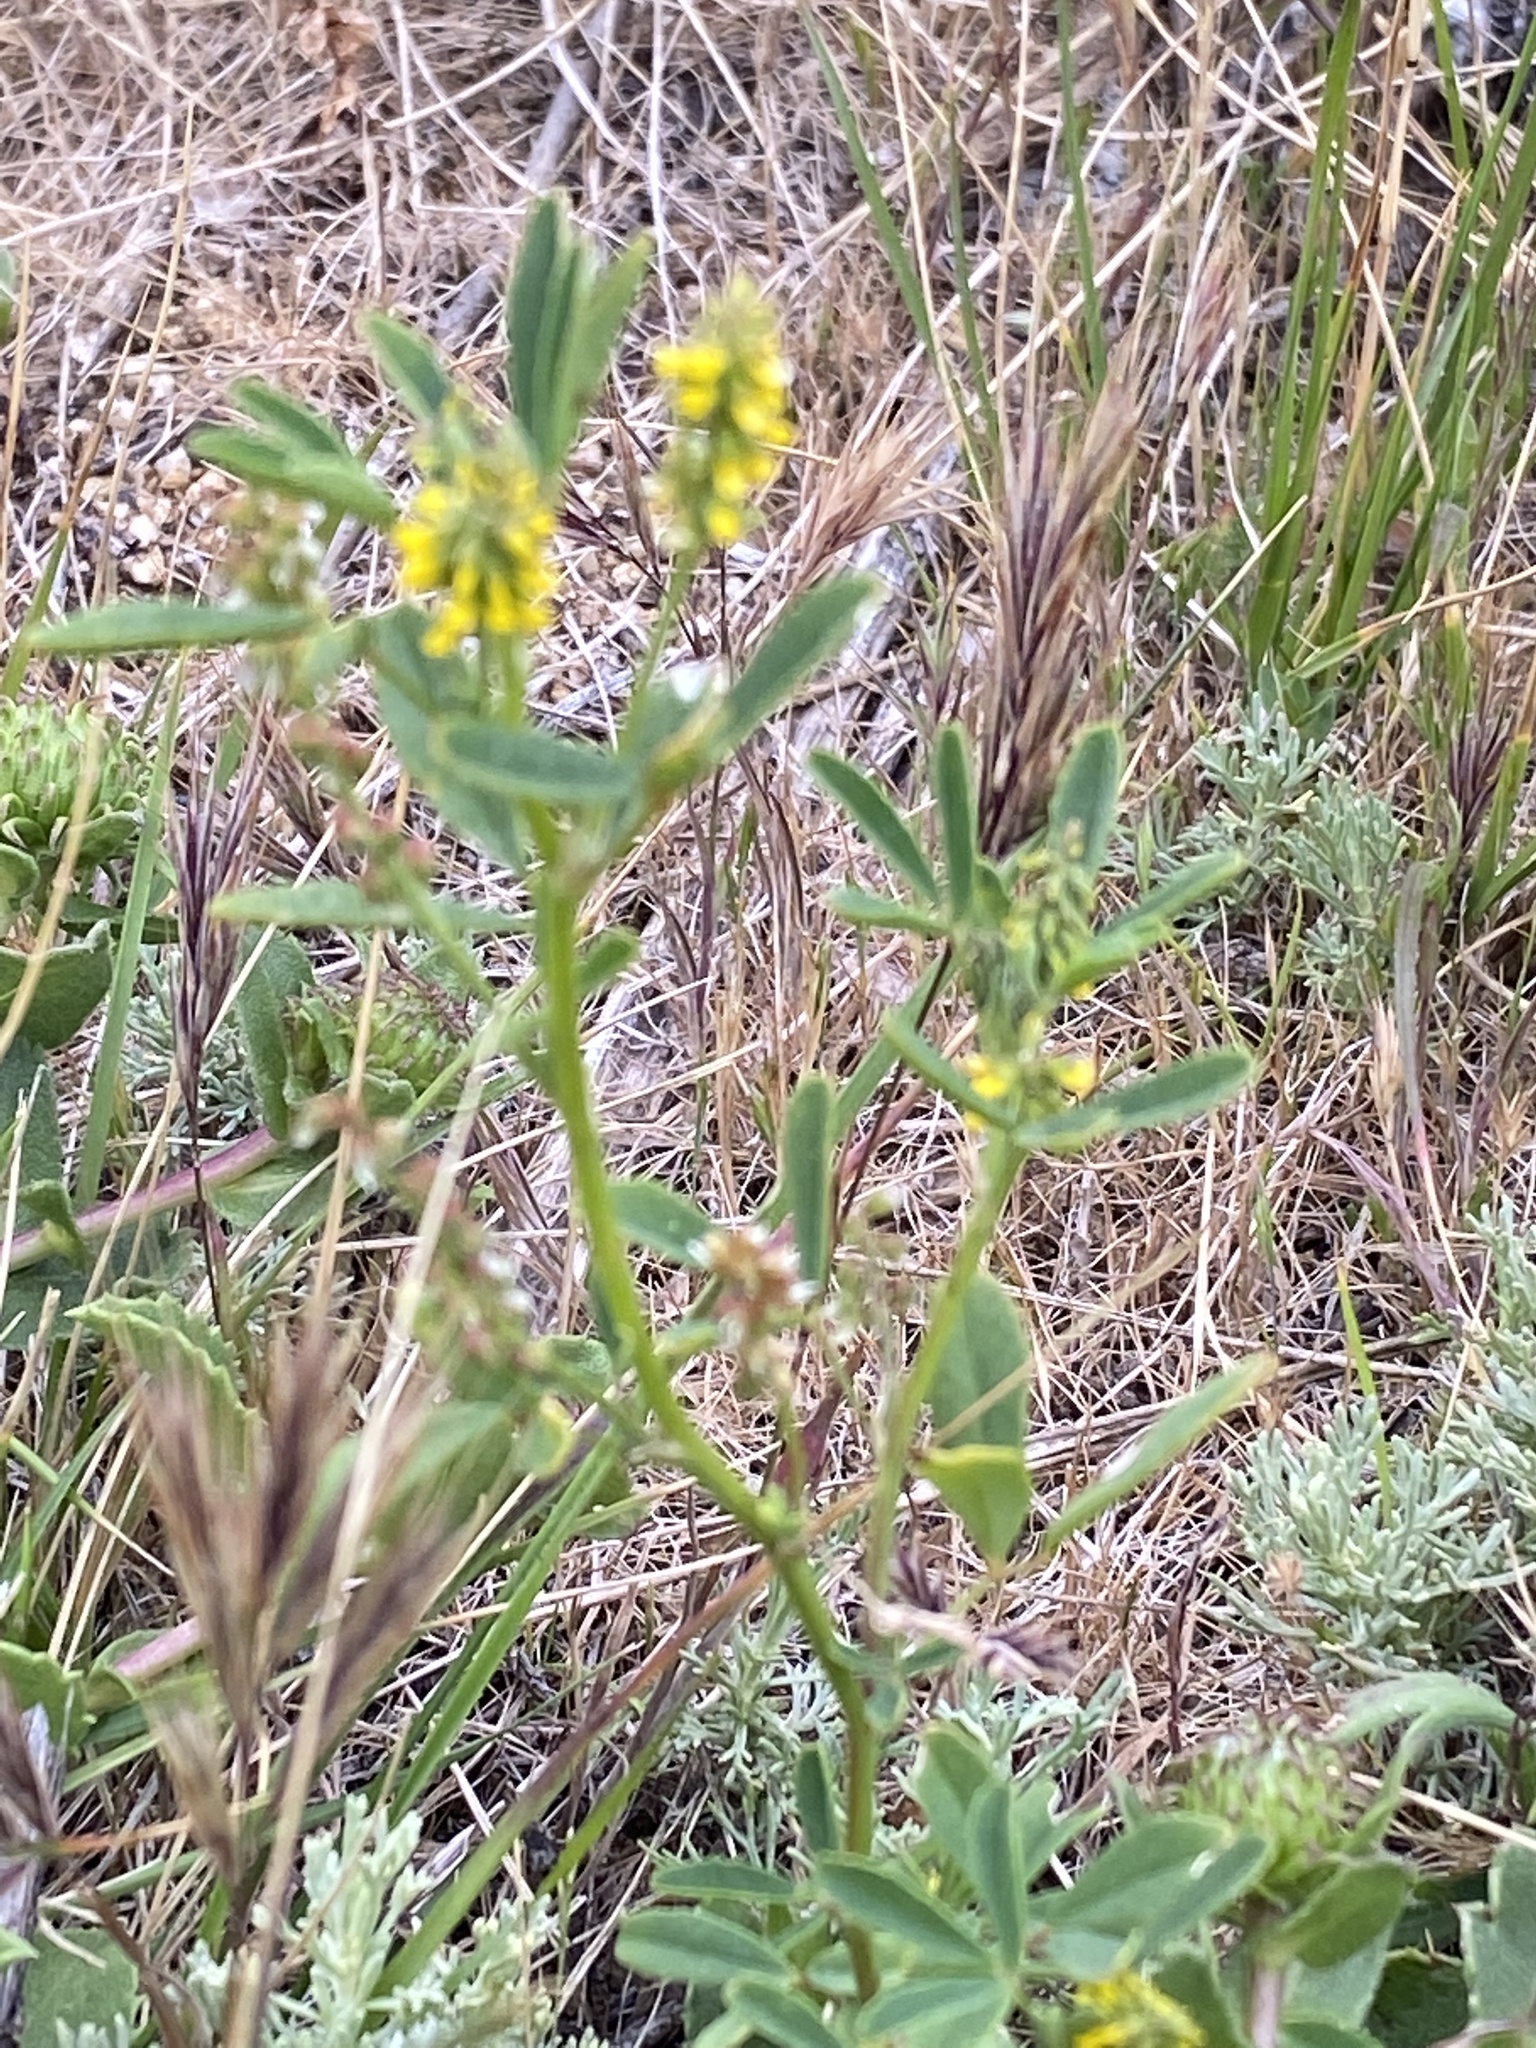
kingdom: Plantae
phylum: Tracheophyta
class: Magnoliopsida
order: Fabales
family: Fabaceae
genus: Melilotus
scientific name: Melilotus indicus
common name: Small melilot
